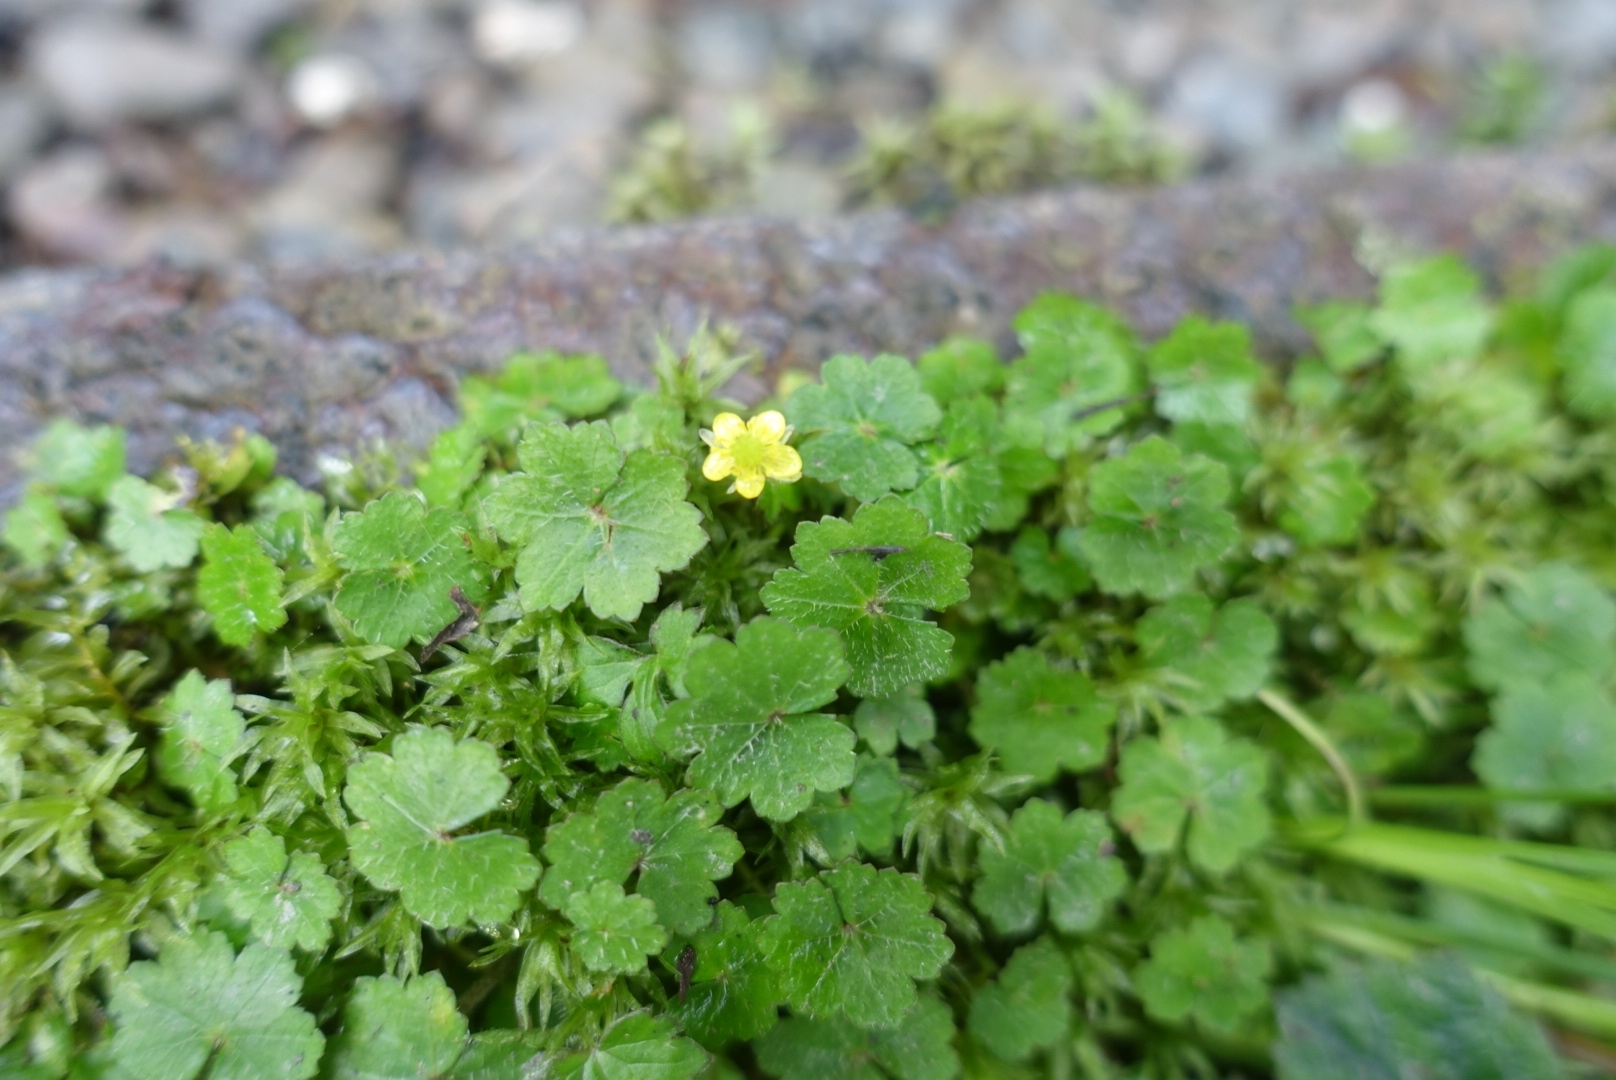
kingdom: Plantae
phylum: Tracheophyta
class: Magnoliopsida
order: Ranunculales
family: Ranunculaceae
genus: Ranunculus
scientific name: Ranunculus taisanensis
